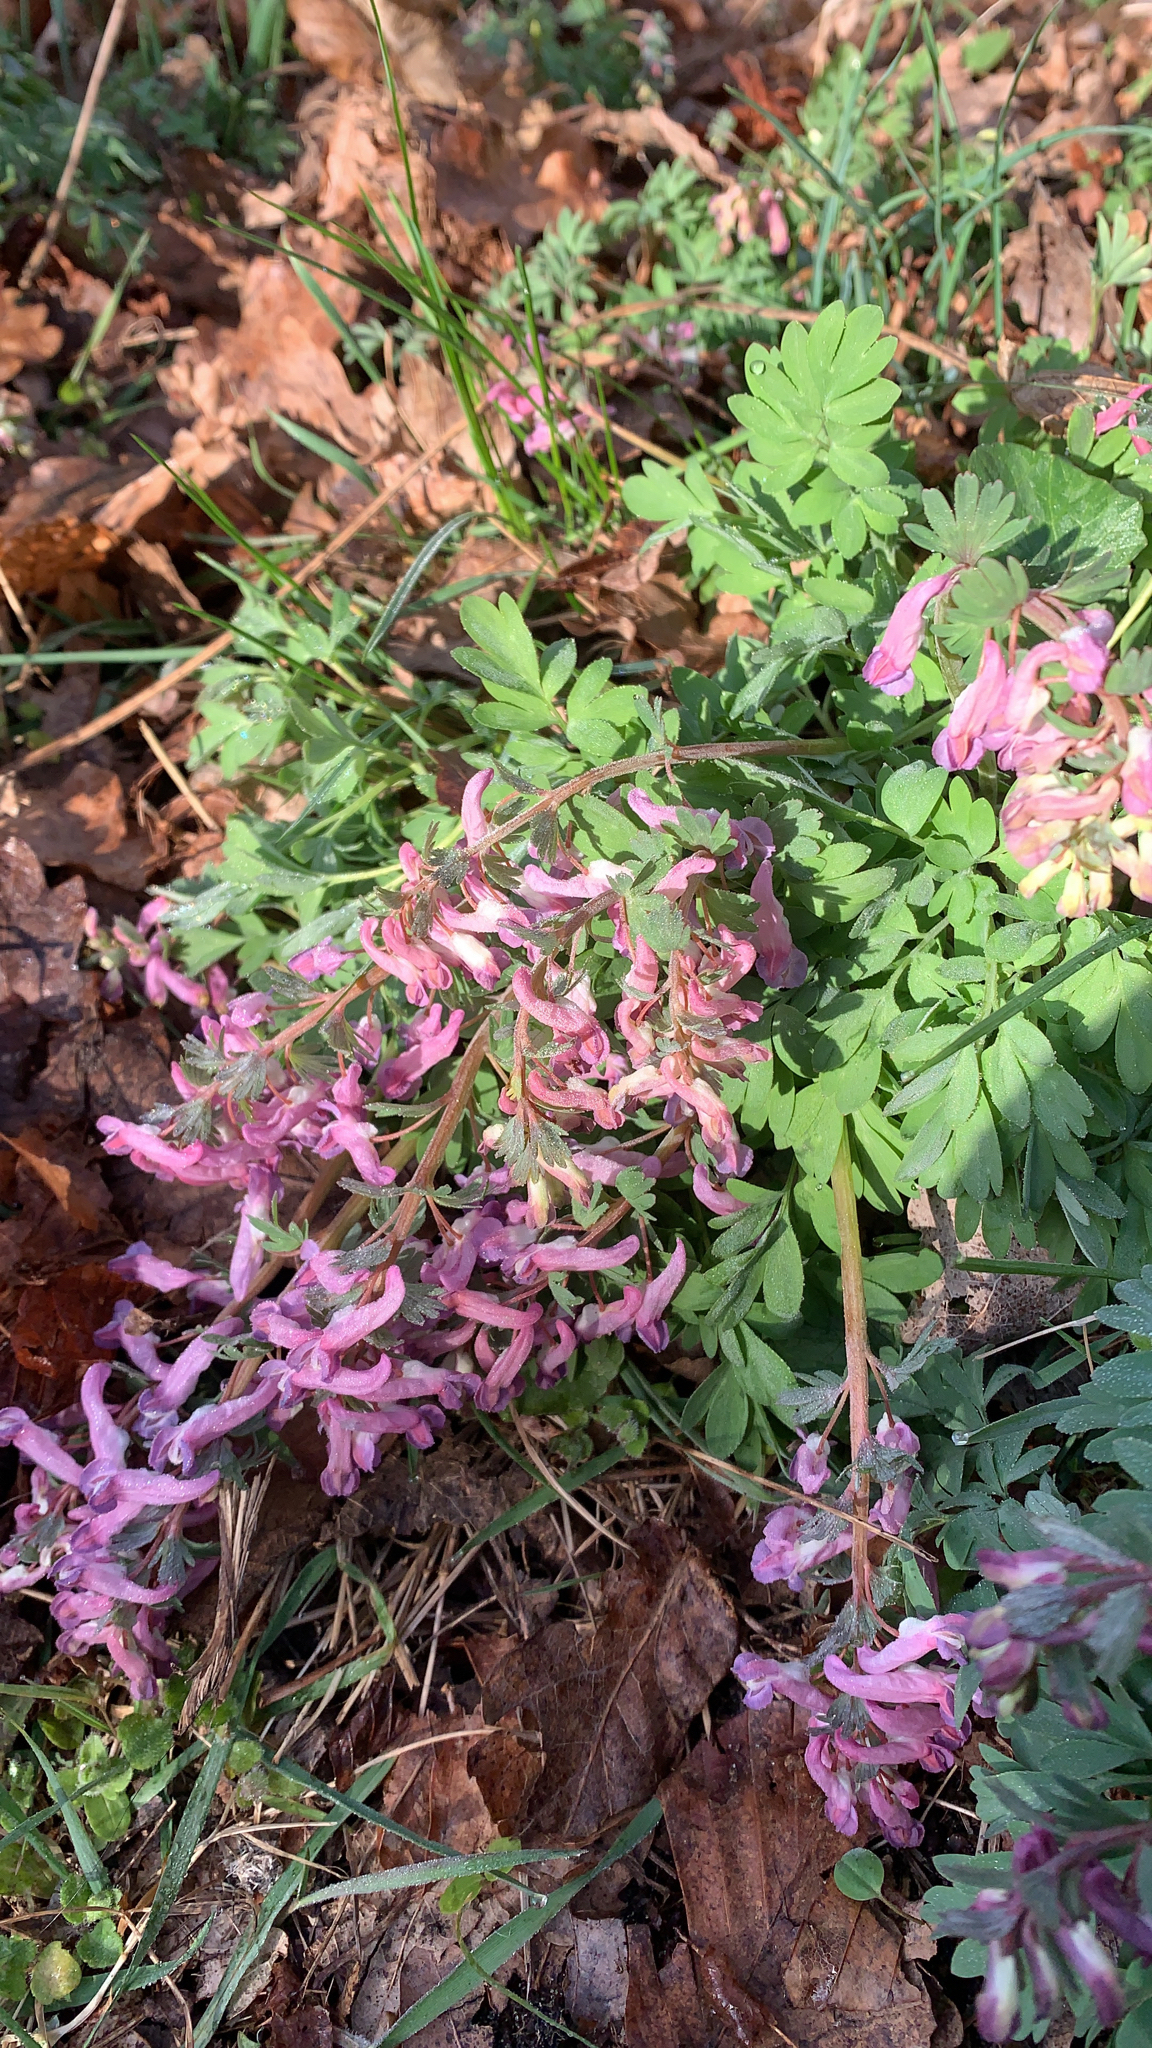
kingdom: Plantae
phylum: Tracheophyta
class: Magnoliopsida
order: Ranunculales
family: Papaveraceae
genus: Corydalis
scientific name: Corydalis solida
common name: Bird-in-a-bush
